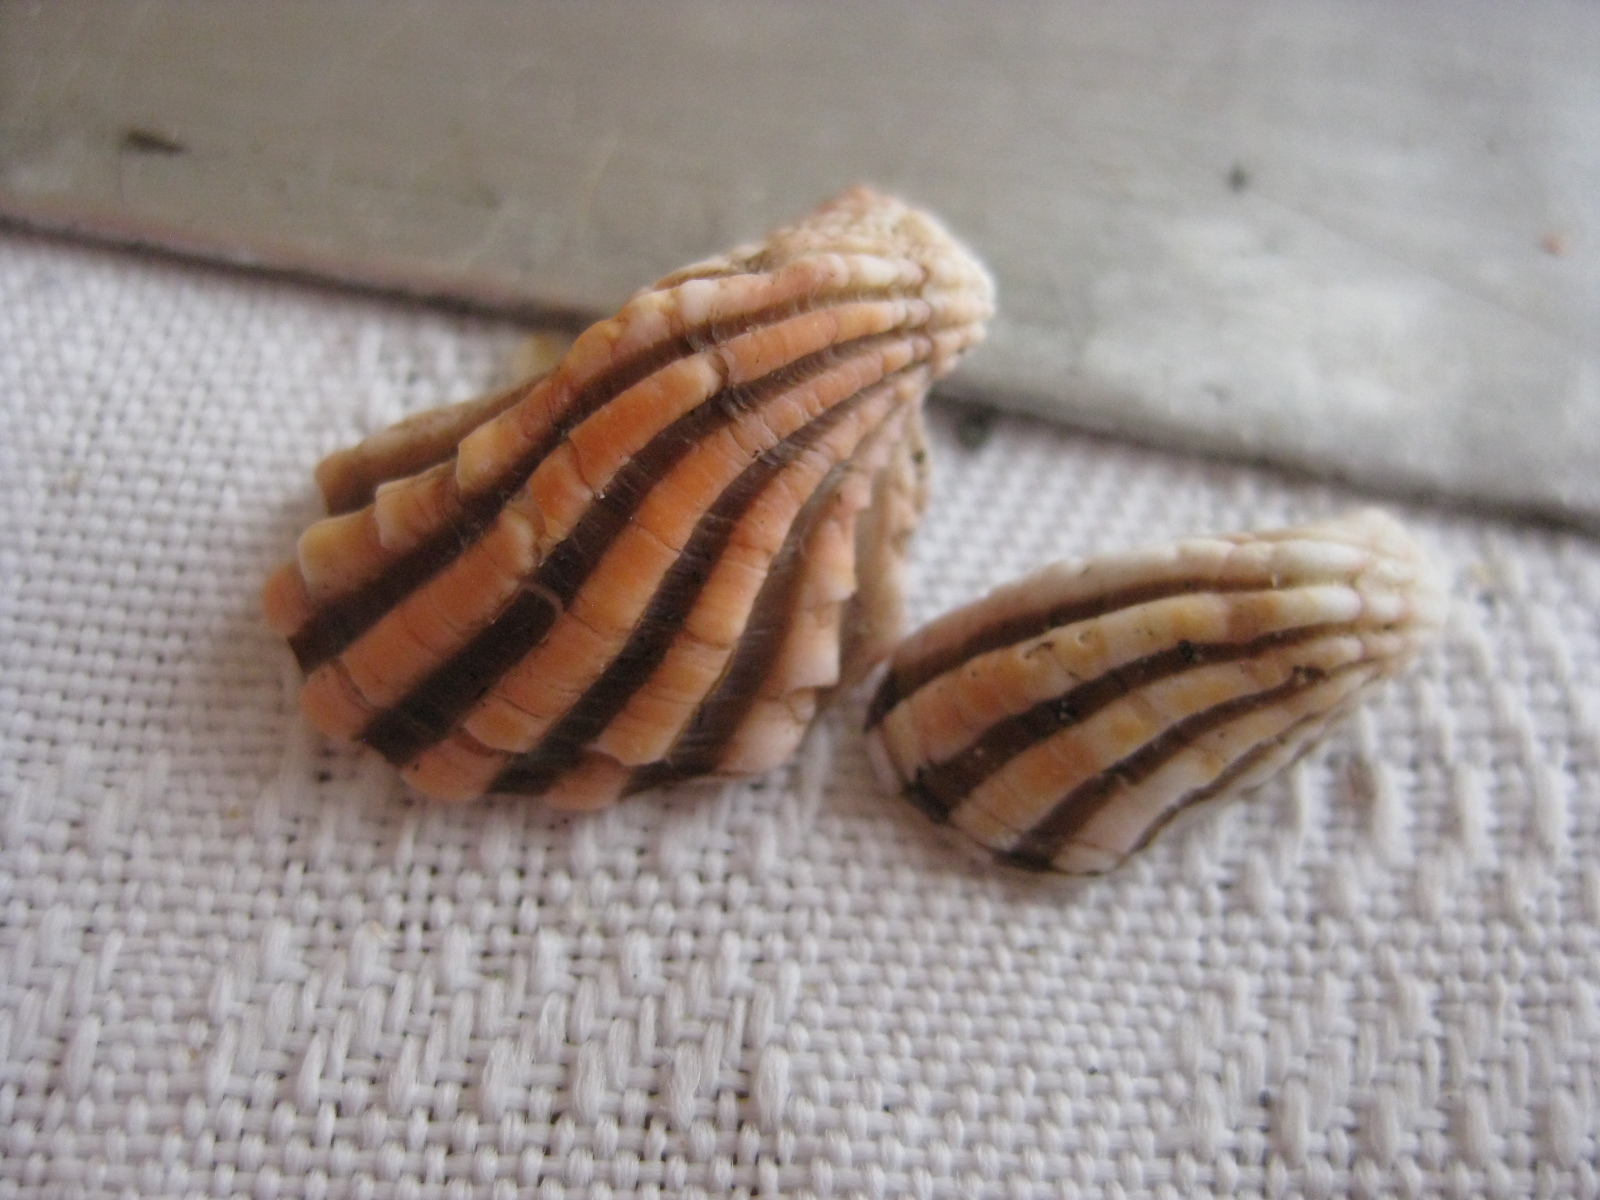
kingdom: Animalia
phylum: Mollusca
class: Bivalvia
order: Carditida
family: Carditidae
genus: Cardita
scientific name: Cardita distorta
